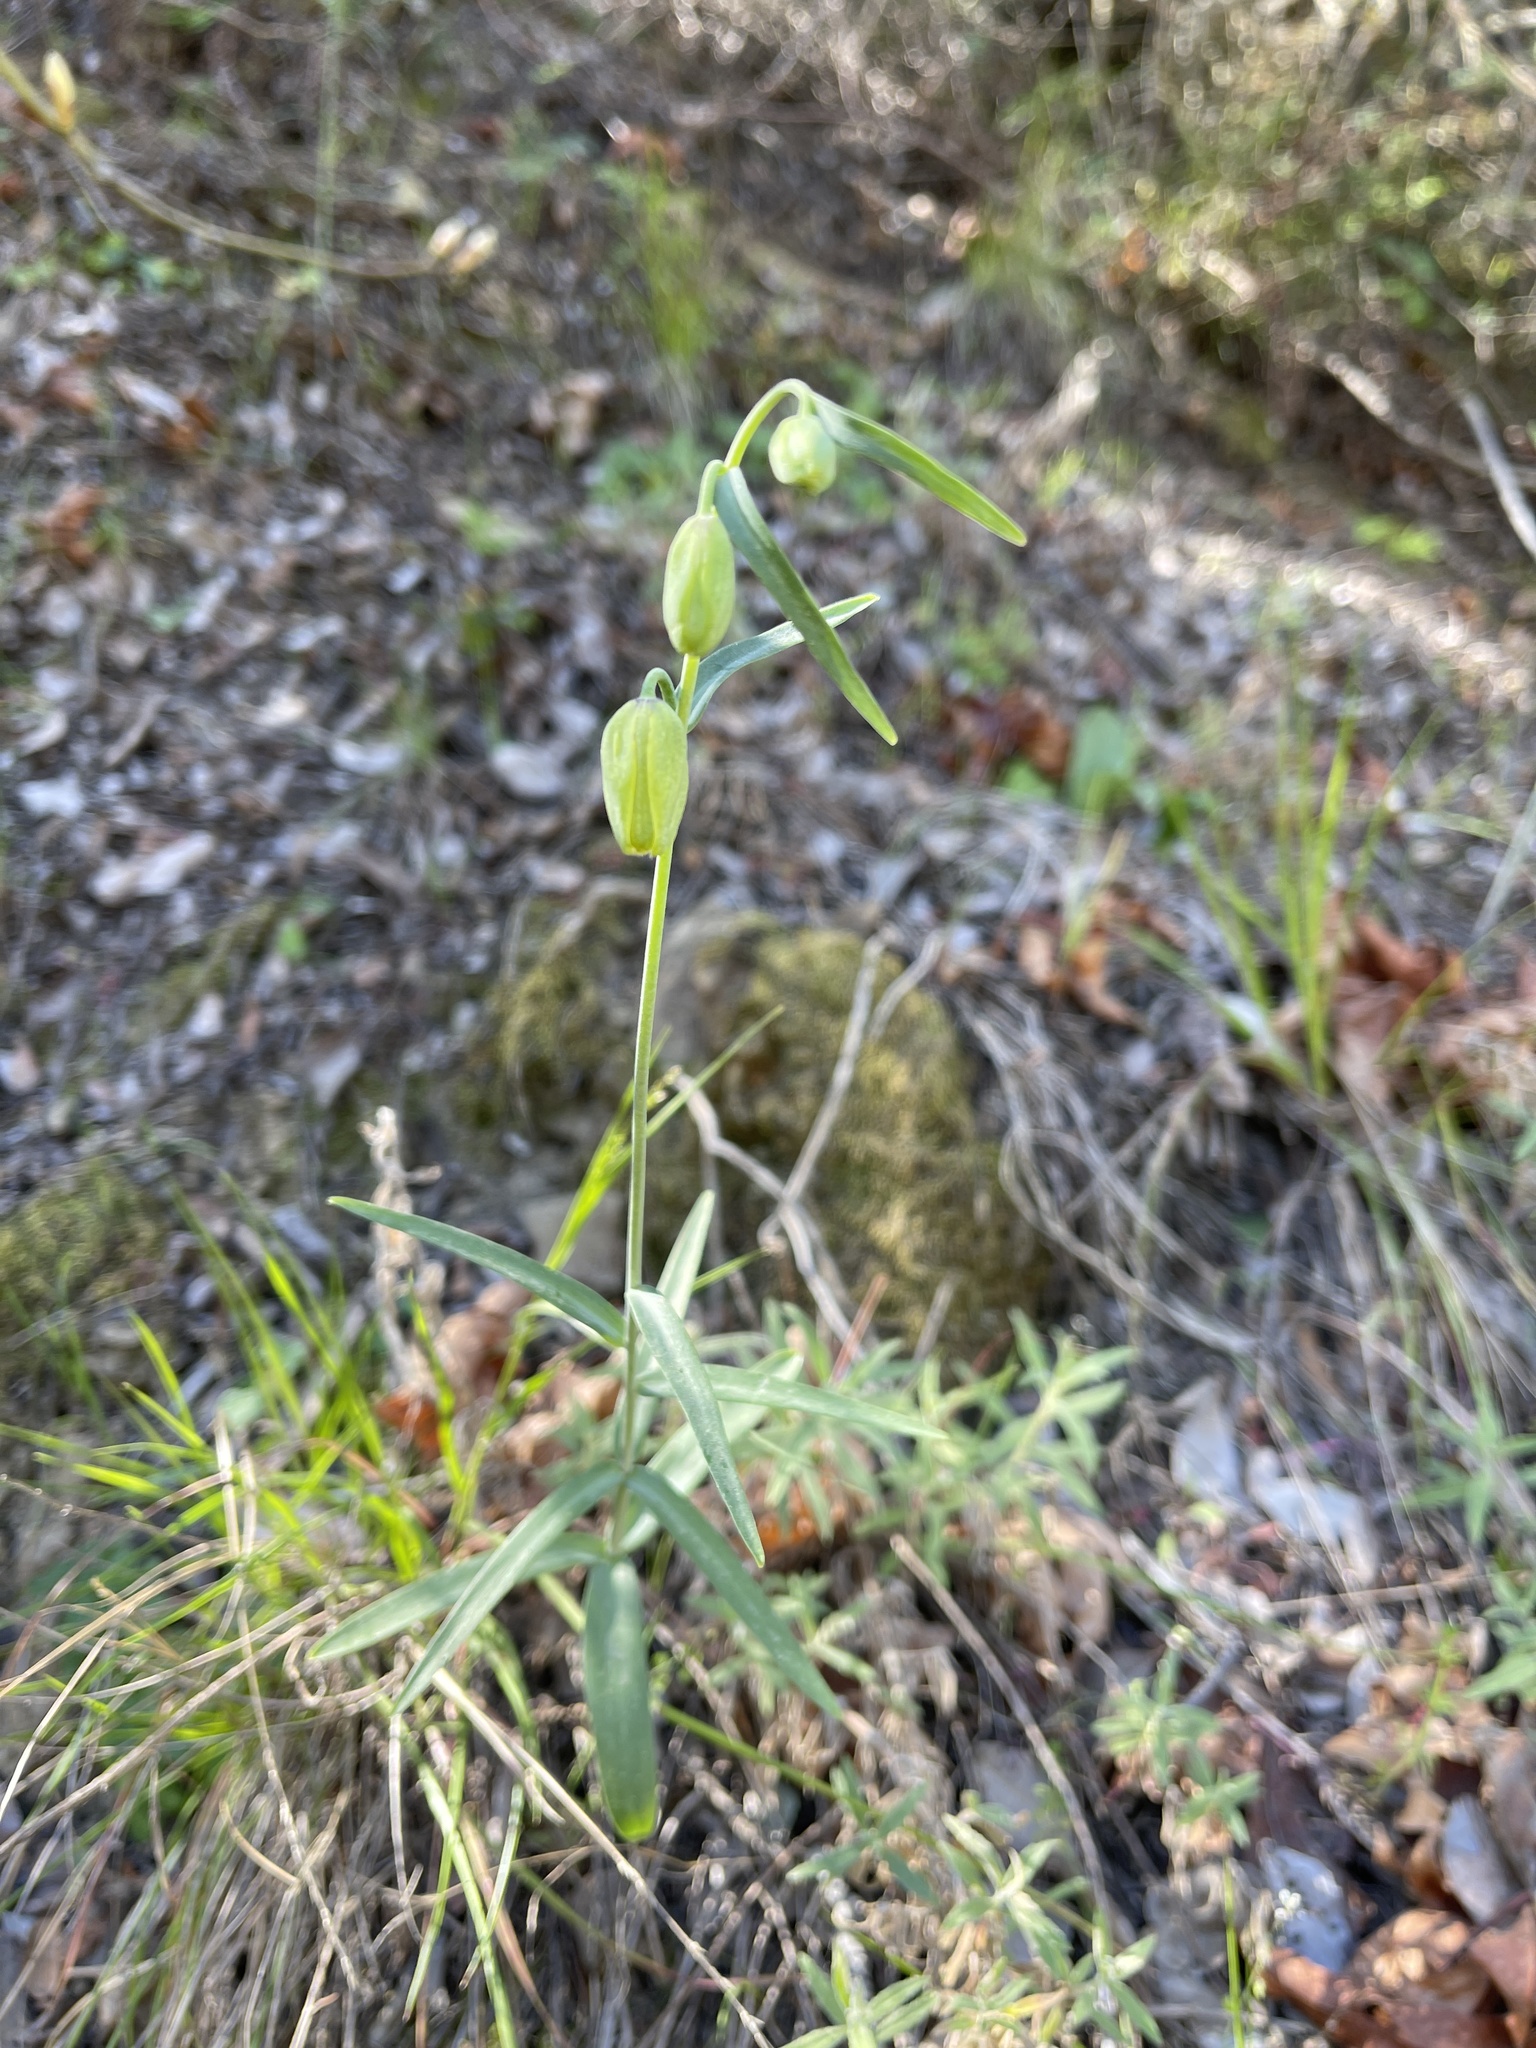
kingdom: Plantae
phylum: Tracheophyta
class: Liliopsida
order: Liliales
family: Liliaceae
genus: Fritillaria
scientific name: Fritillaria ojaiensis
